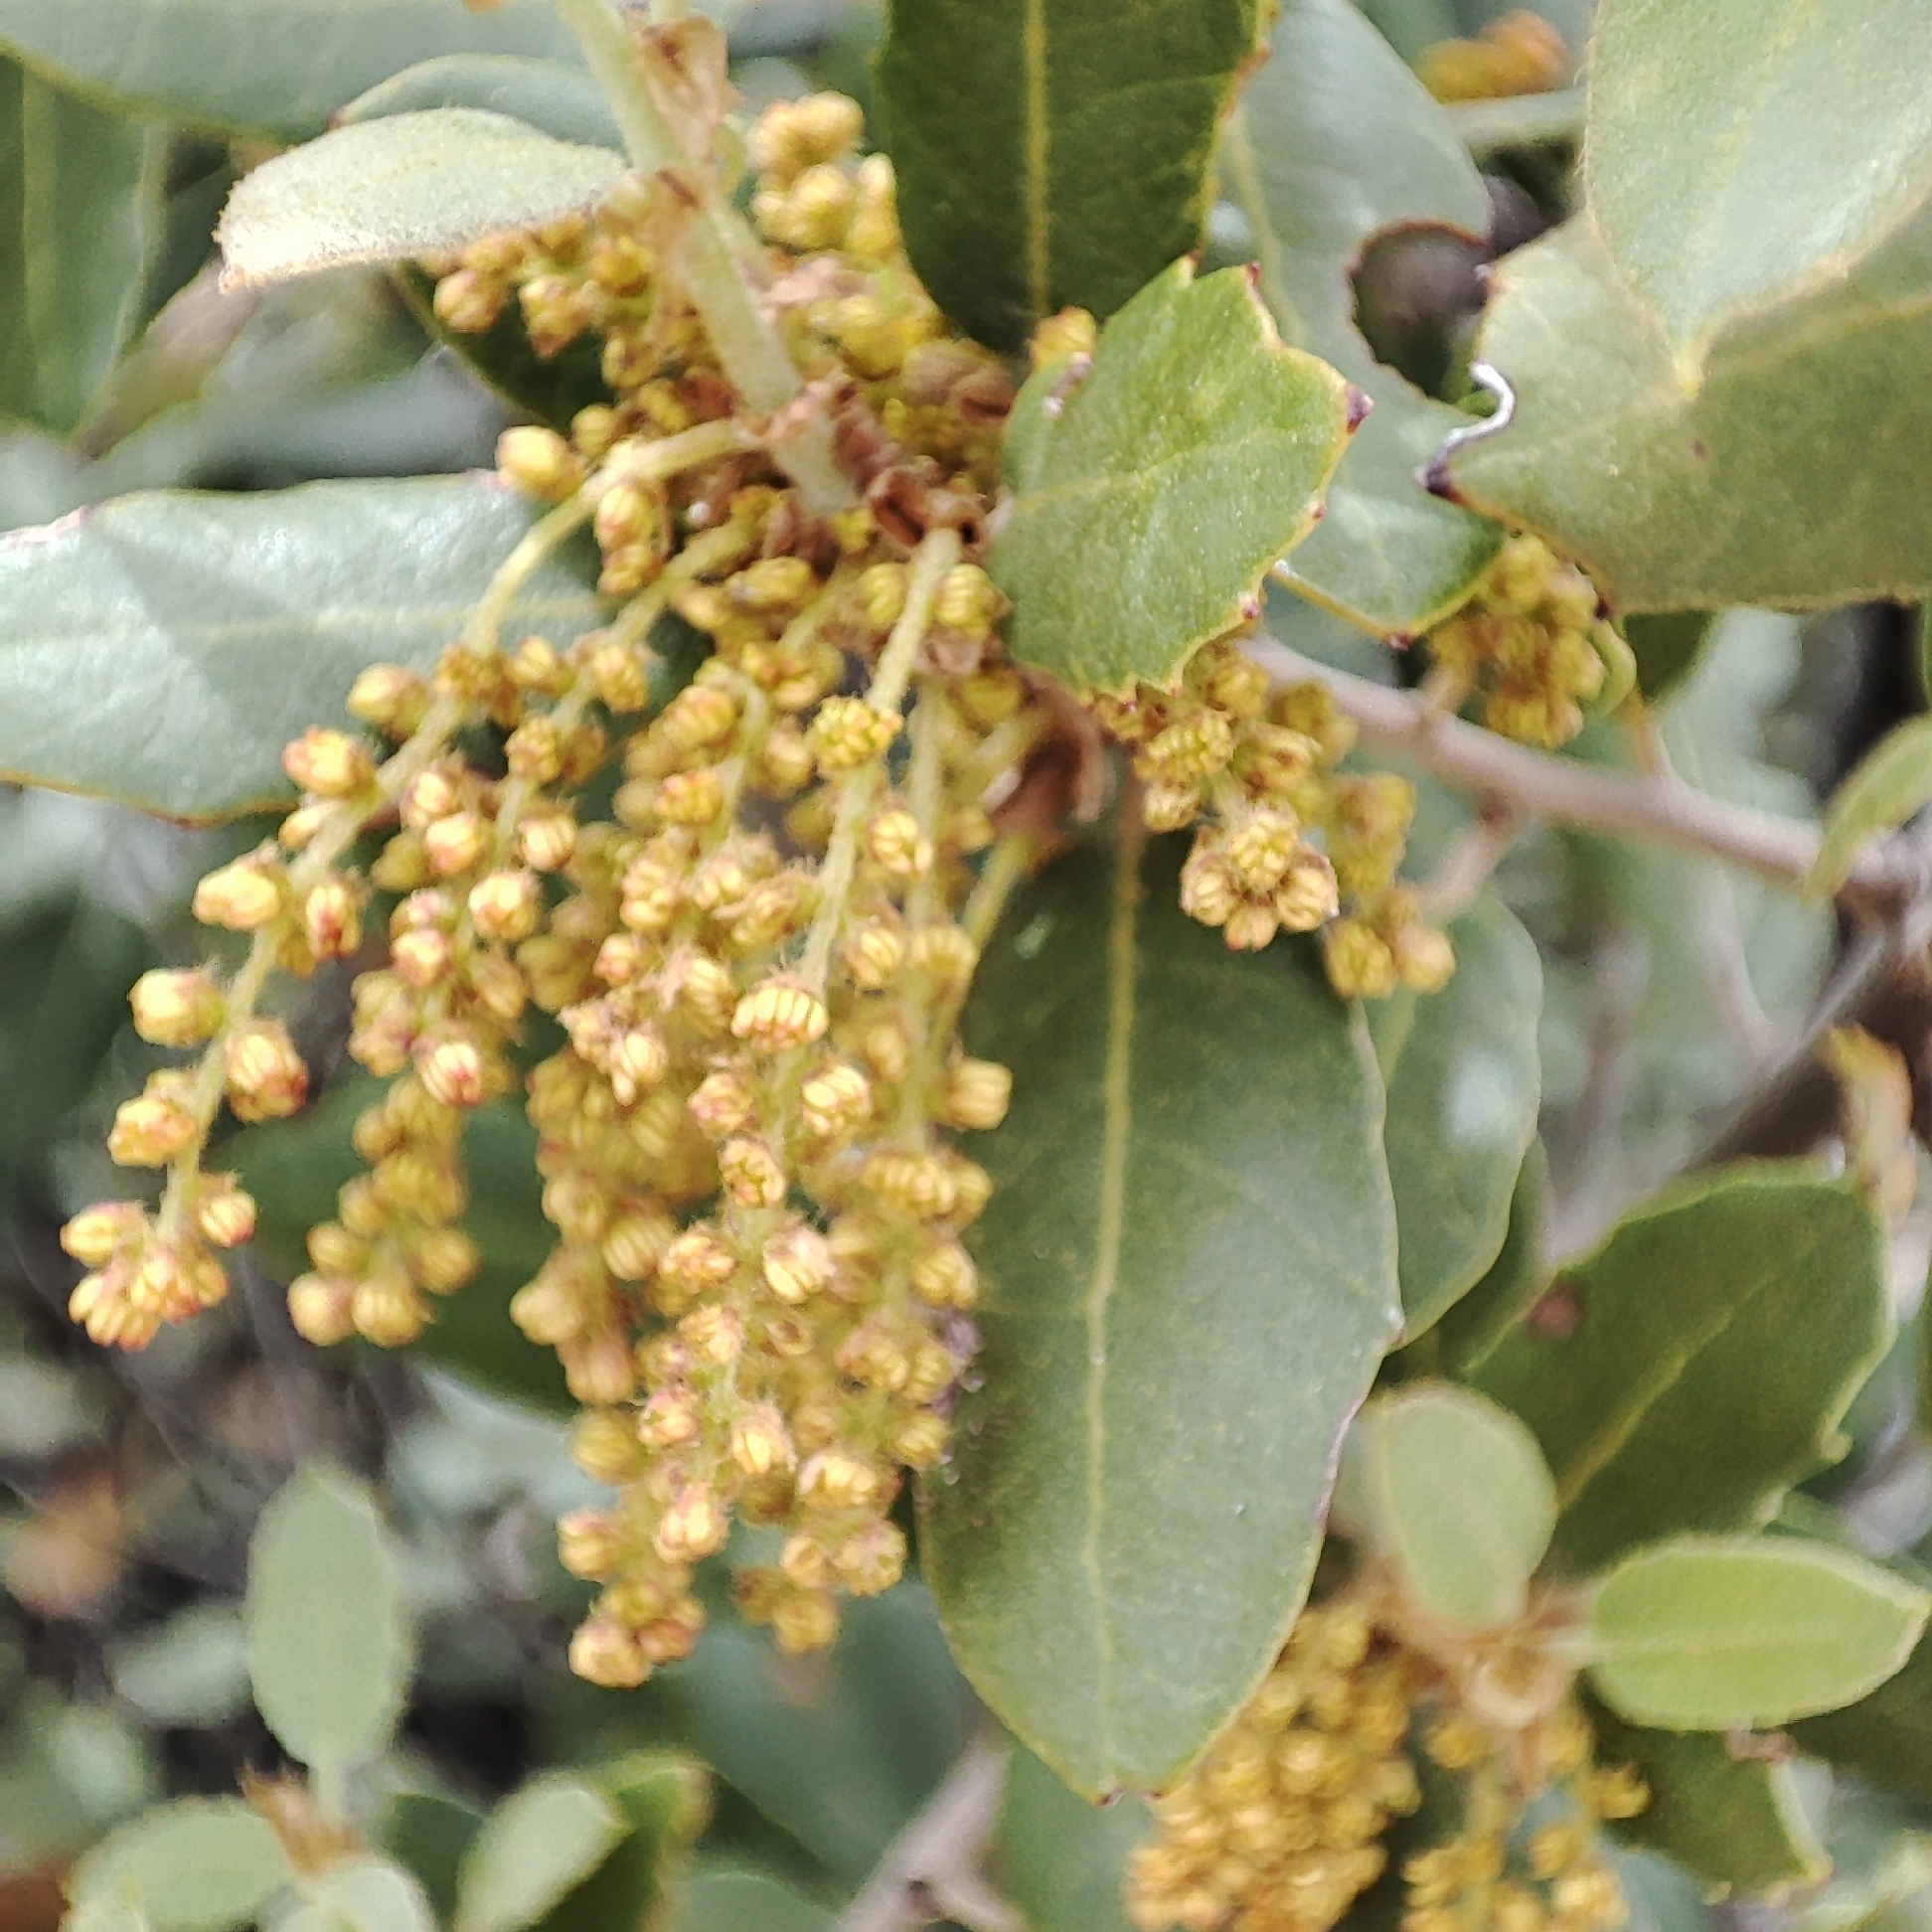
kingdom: Plantae
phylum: Tracheophyta
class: Magnoliopsida
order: Fagales
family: Fagaceae
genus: Quercus
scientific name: Quercus rotundifolia
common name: Holm oak
